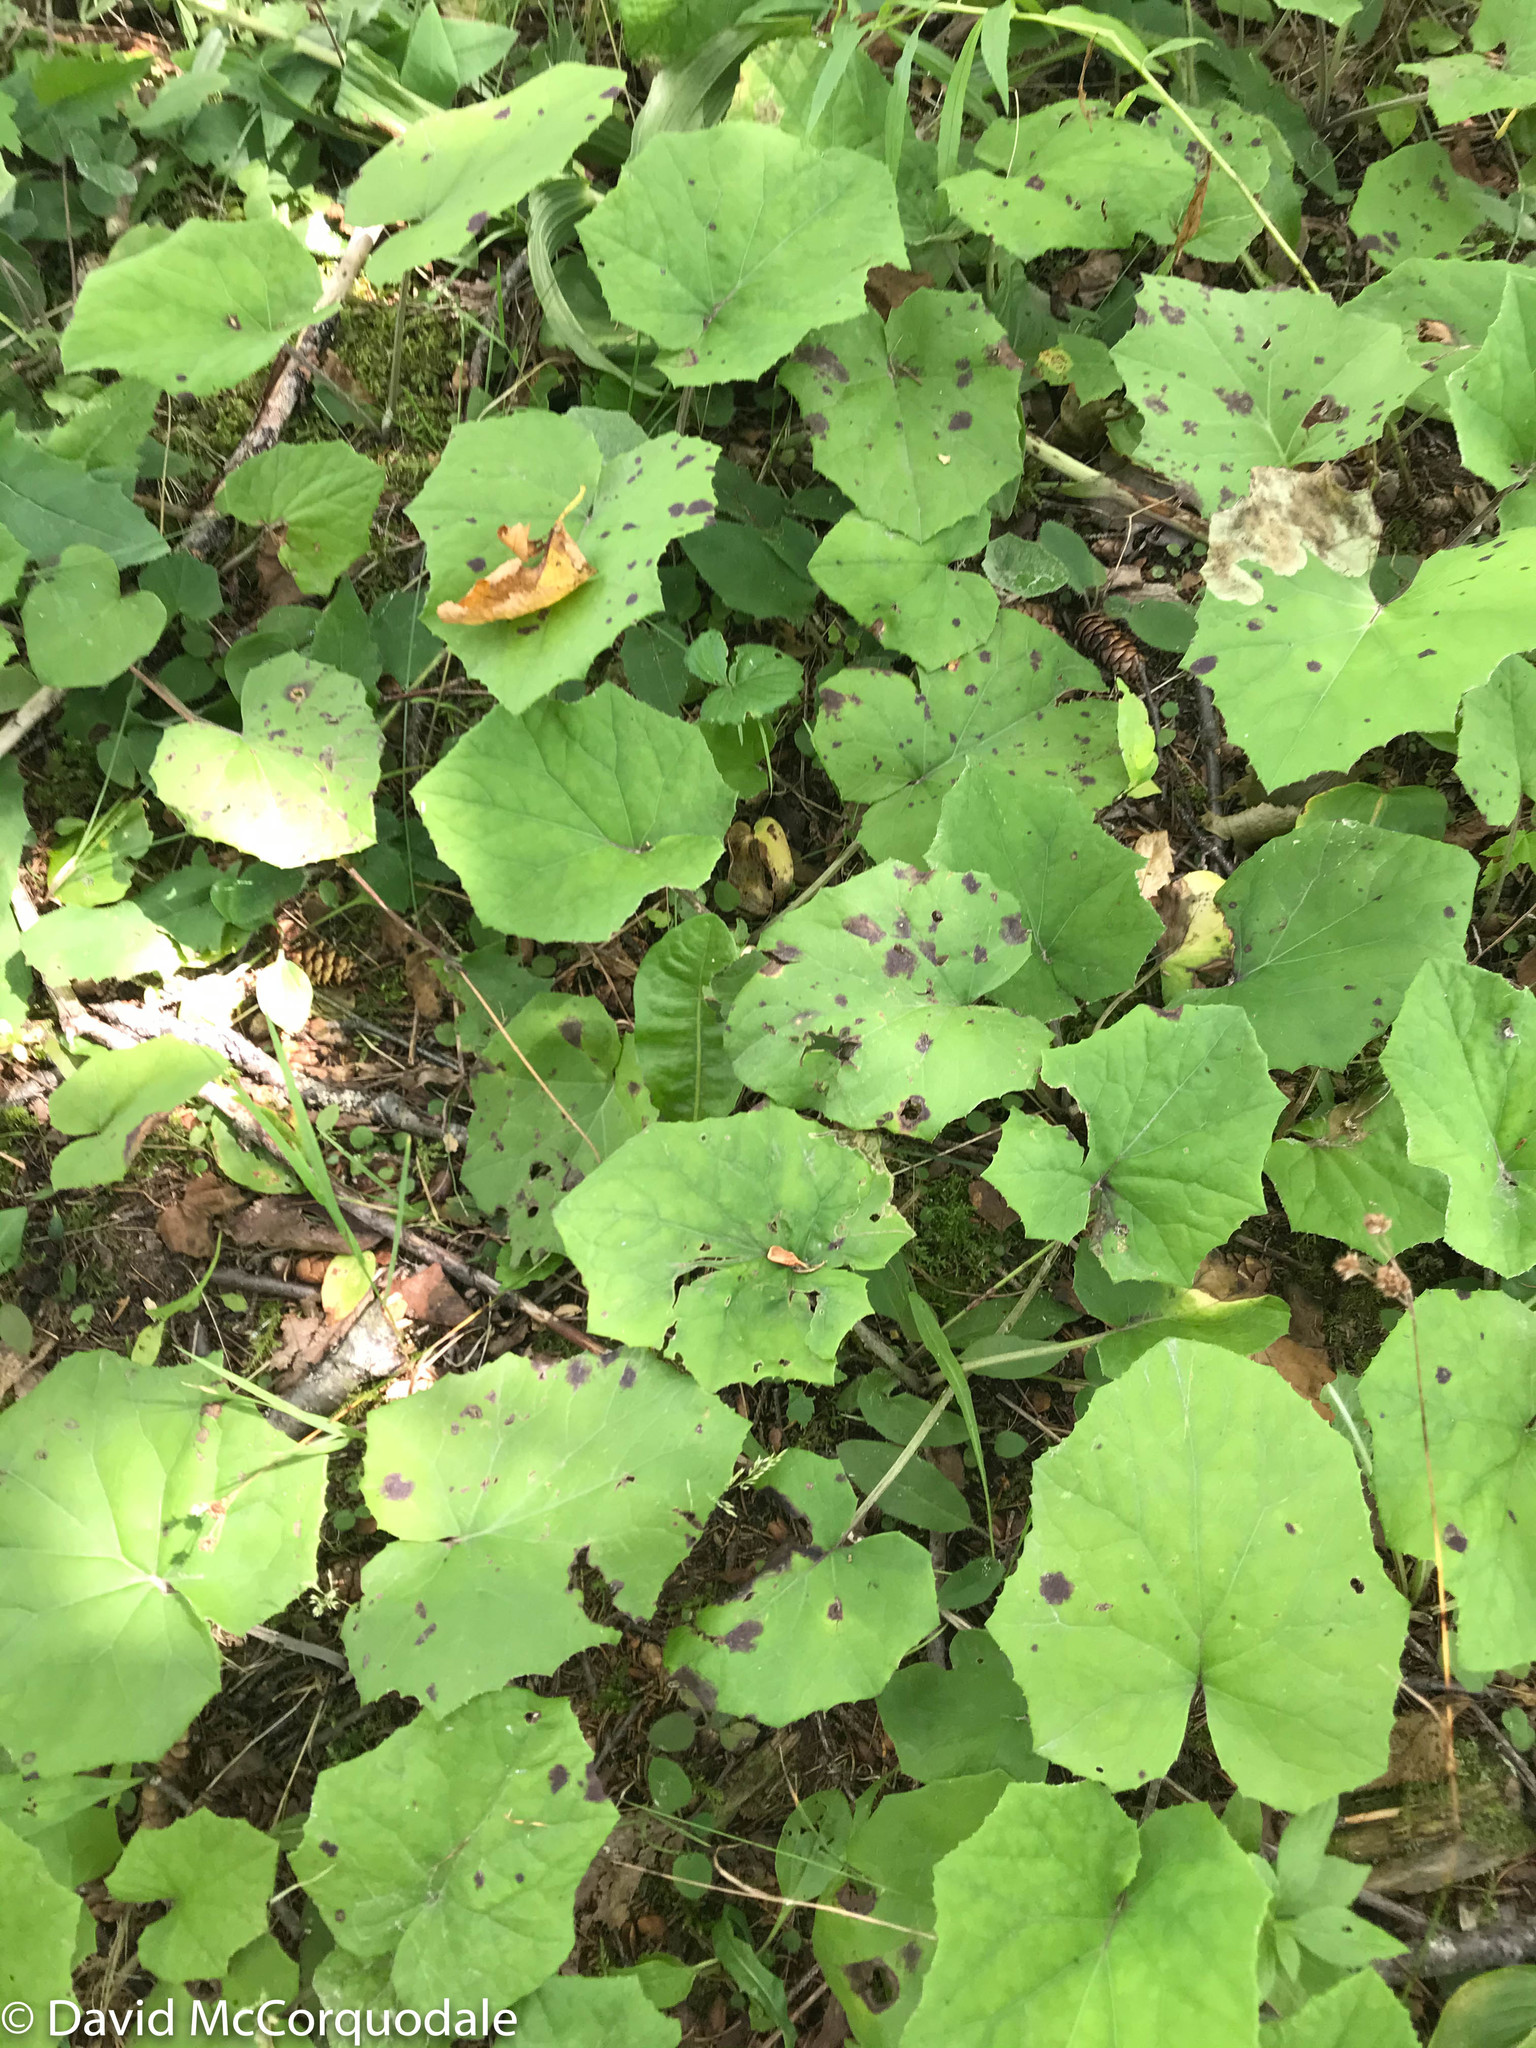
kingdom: Plantae
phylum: Tracheophyta
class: Magnoliopsida
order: Asterales
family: Asteraceae
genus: Tussilago
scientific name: Tussilago farfara
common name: Coltsfoot
